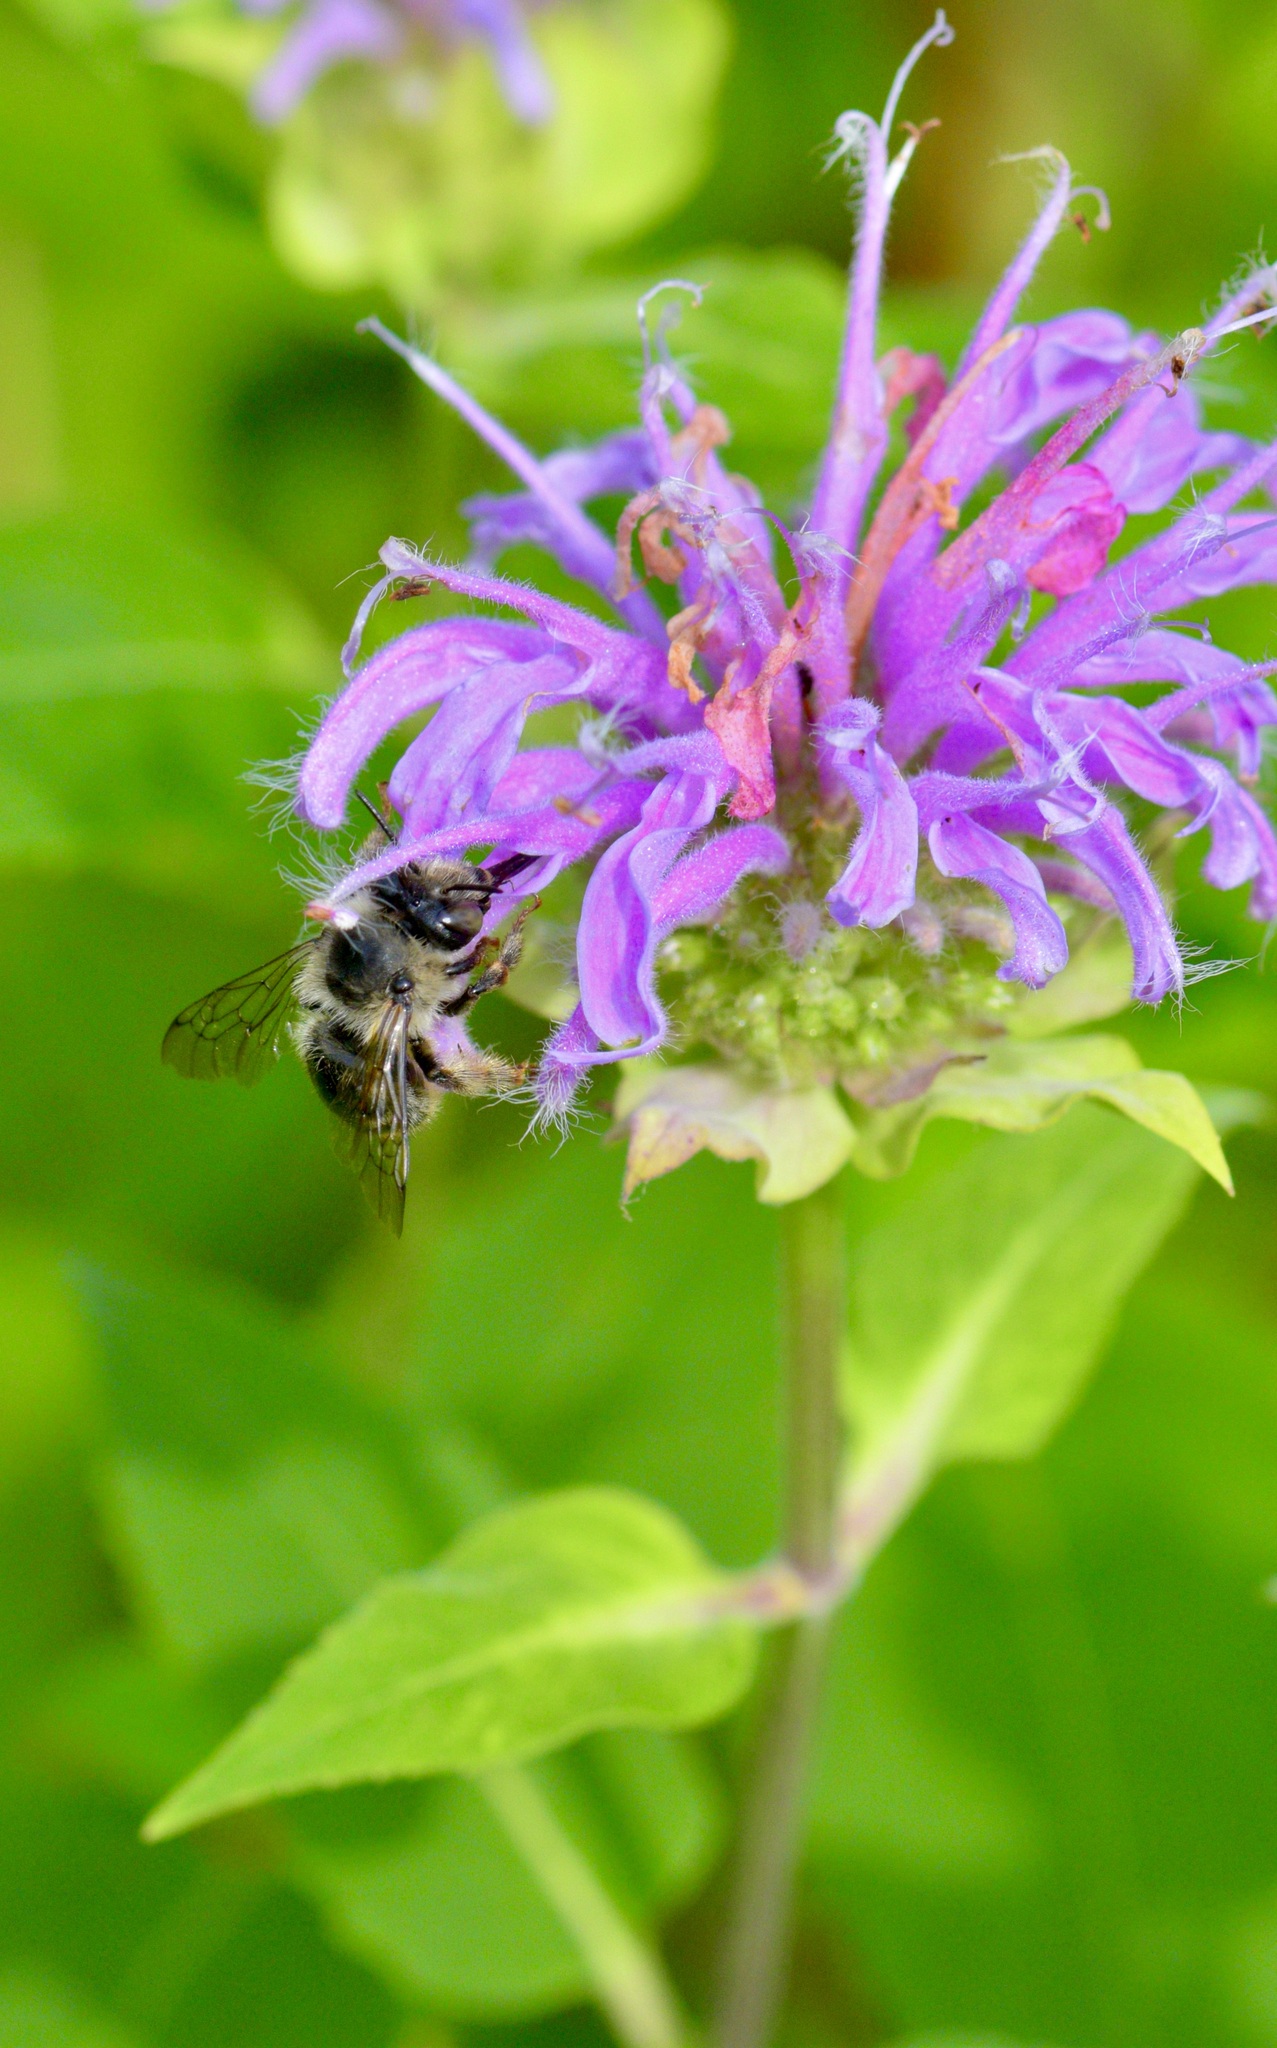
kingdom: Animalia
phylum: Arthropoda
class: Insecta
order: Hymenoptera
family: Apidae
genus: Anthophora
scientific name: Anthophora terminalis
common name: Orange-tipped wood-digger bee
